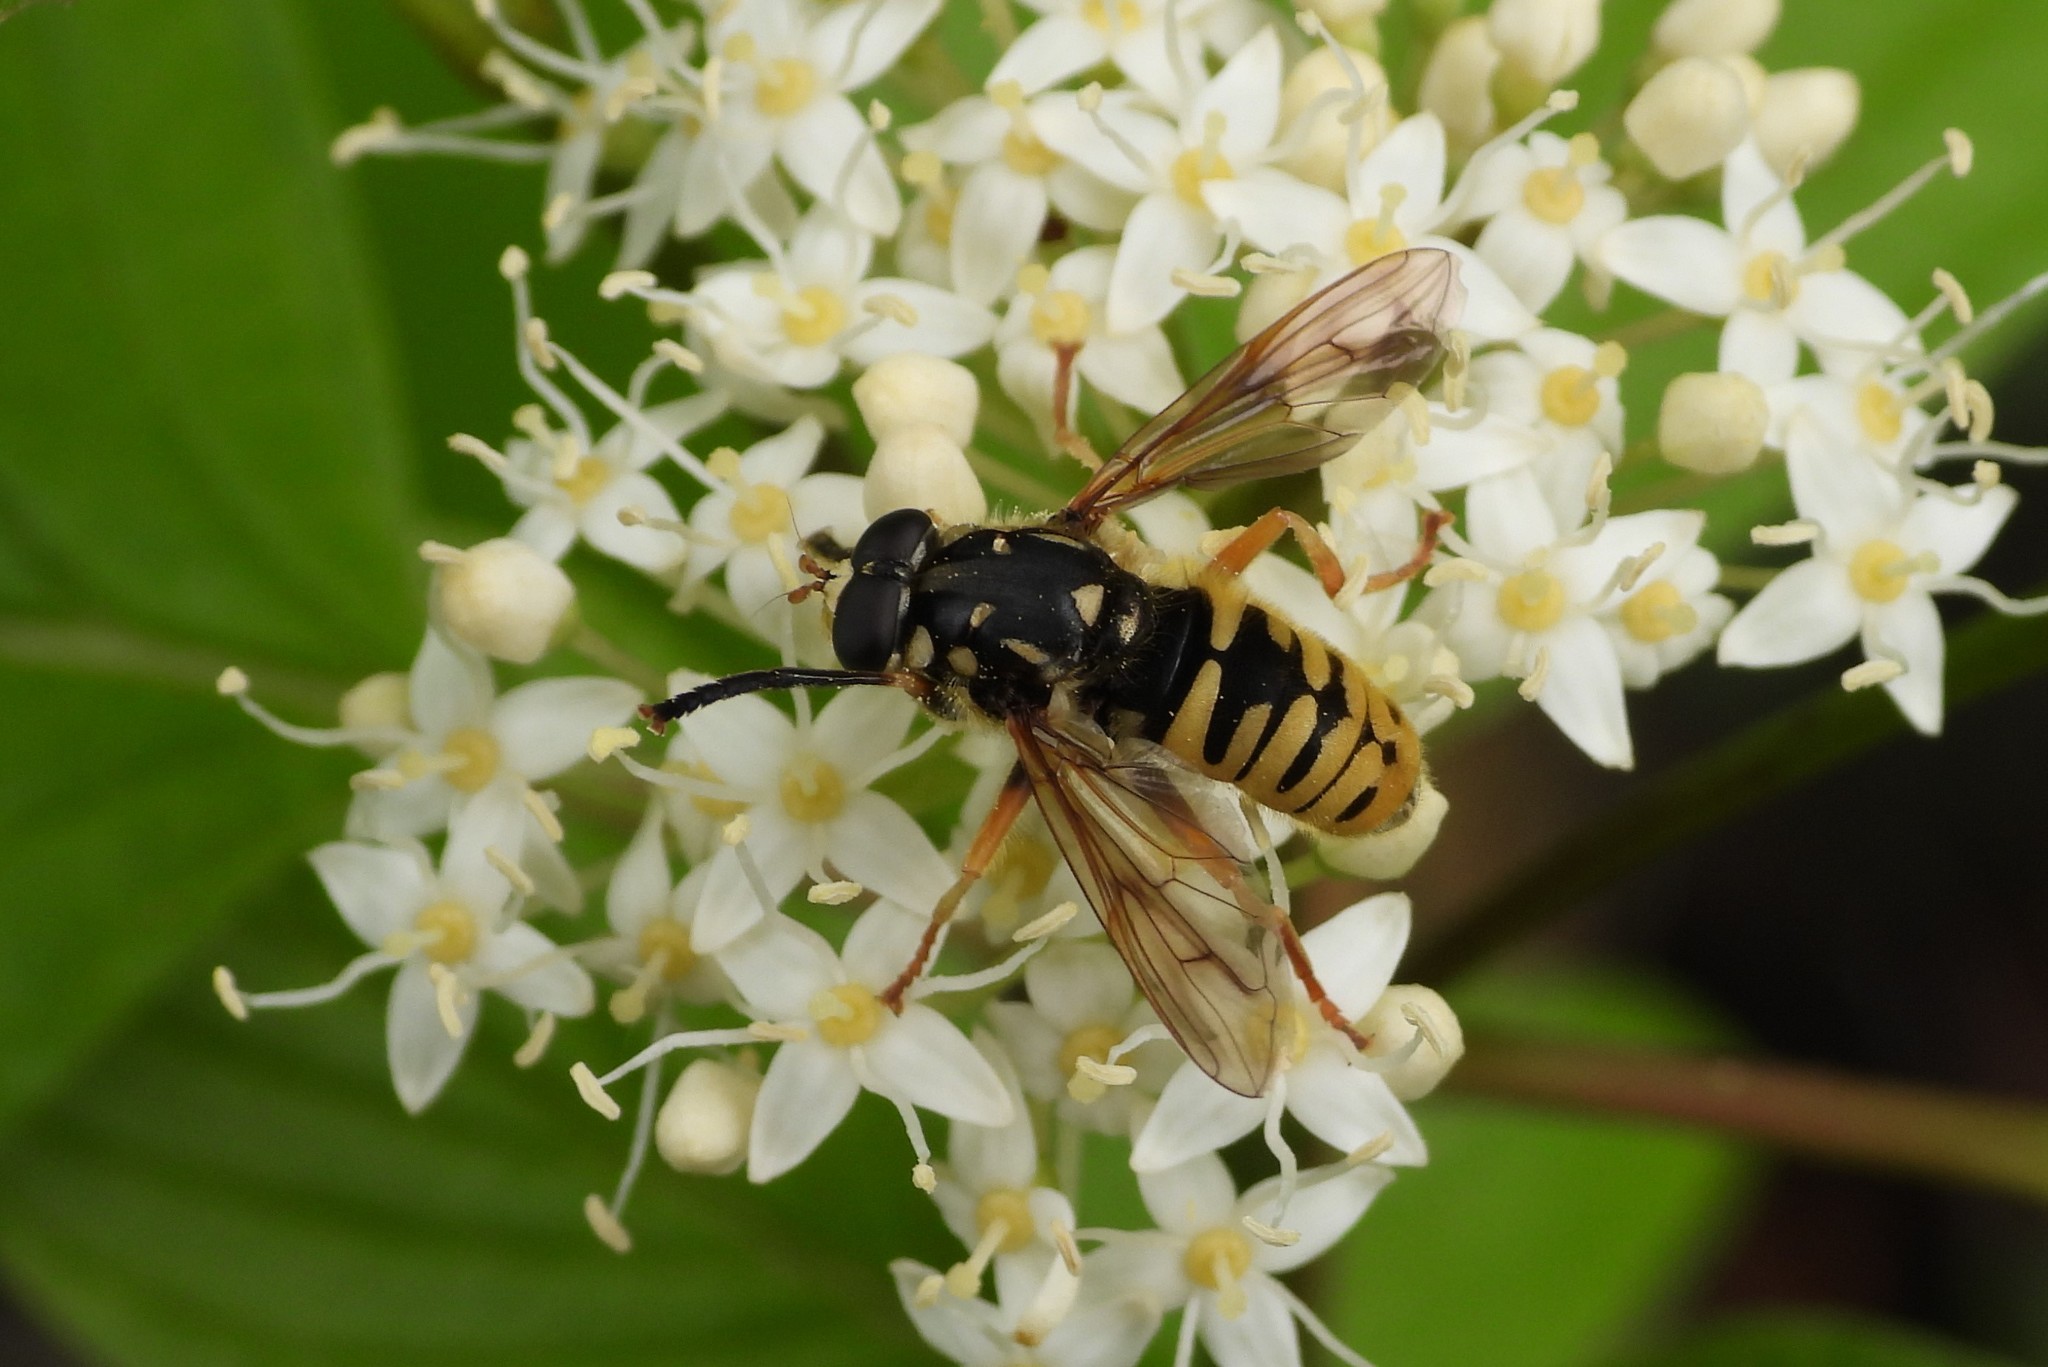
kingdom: Animalia
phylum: Arthropoda
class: Insecta
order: Diptera
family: Syrphidae
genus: Temnostoma
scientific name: Temnostoma alternans
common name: Wasp-like falsehorn
